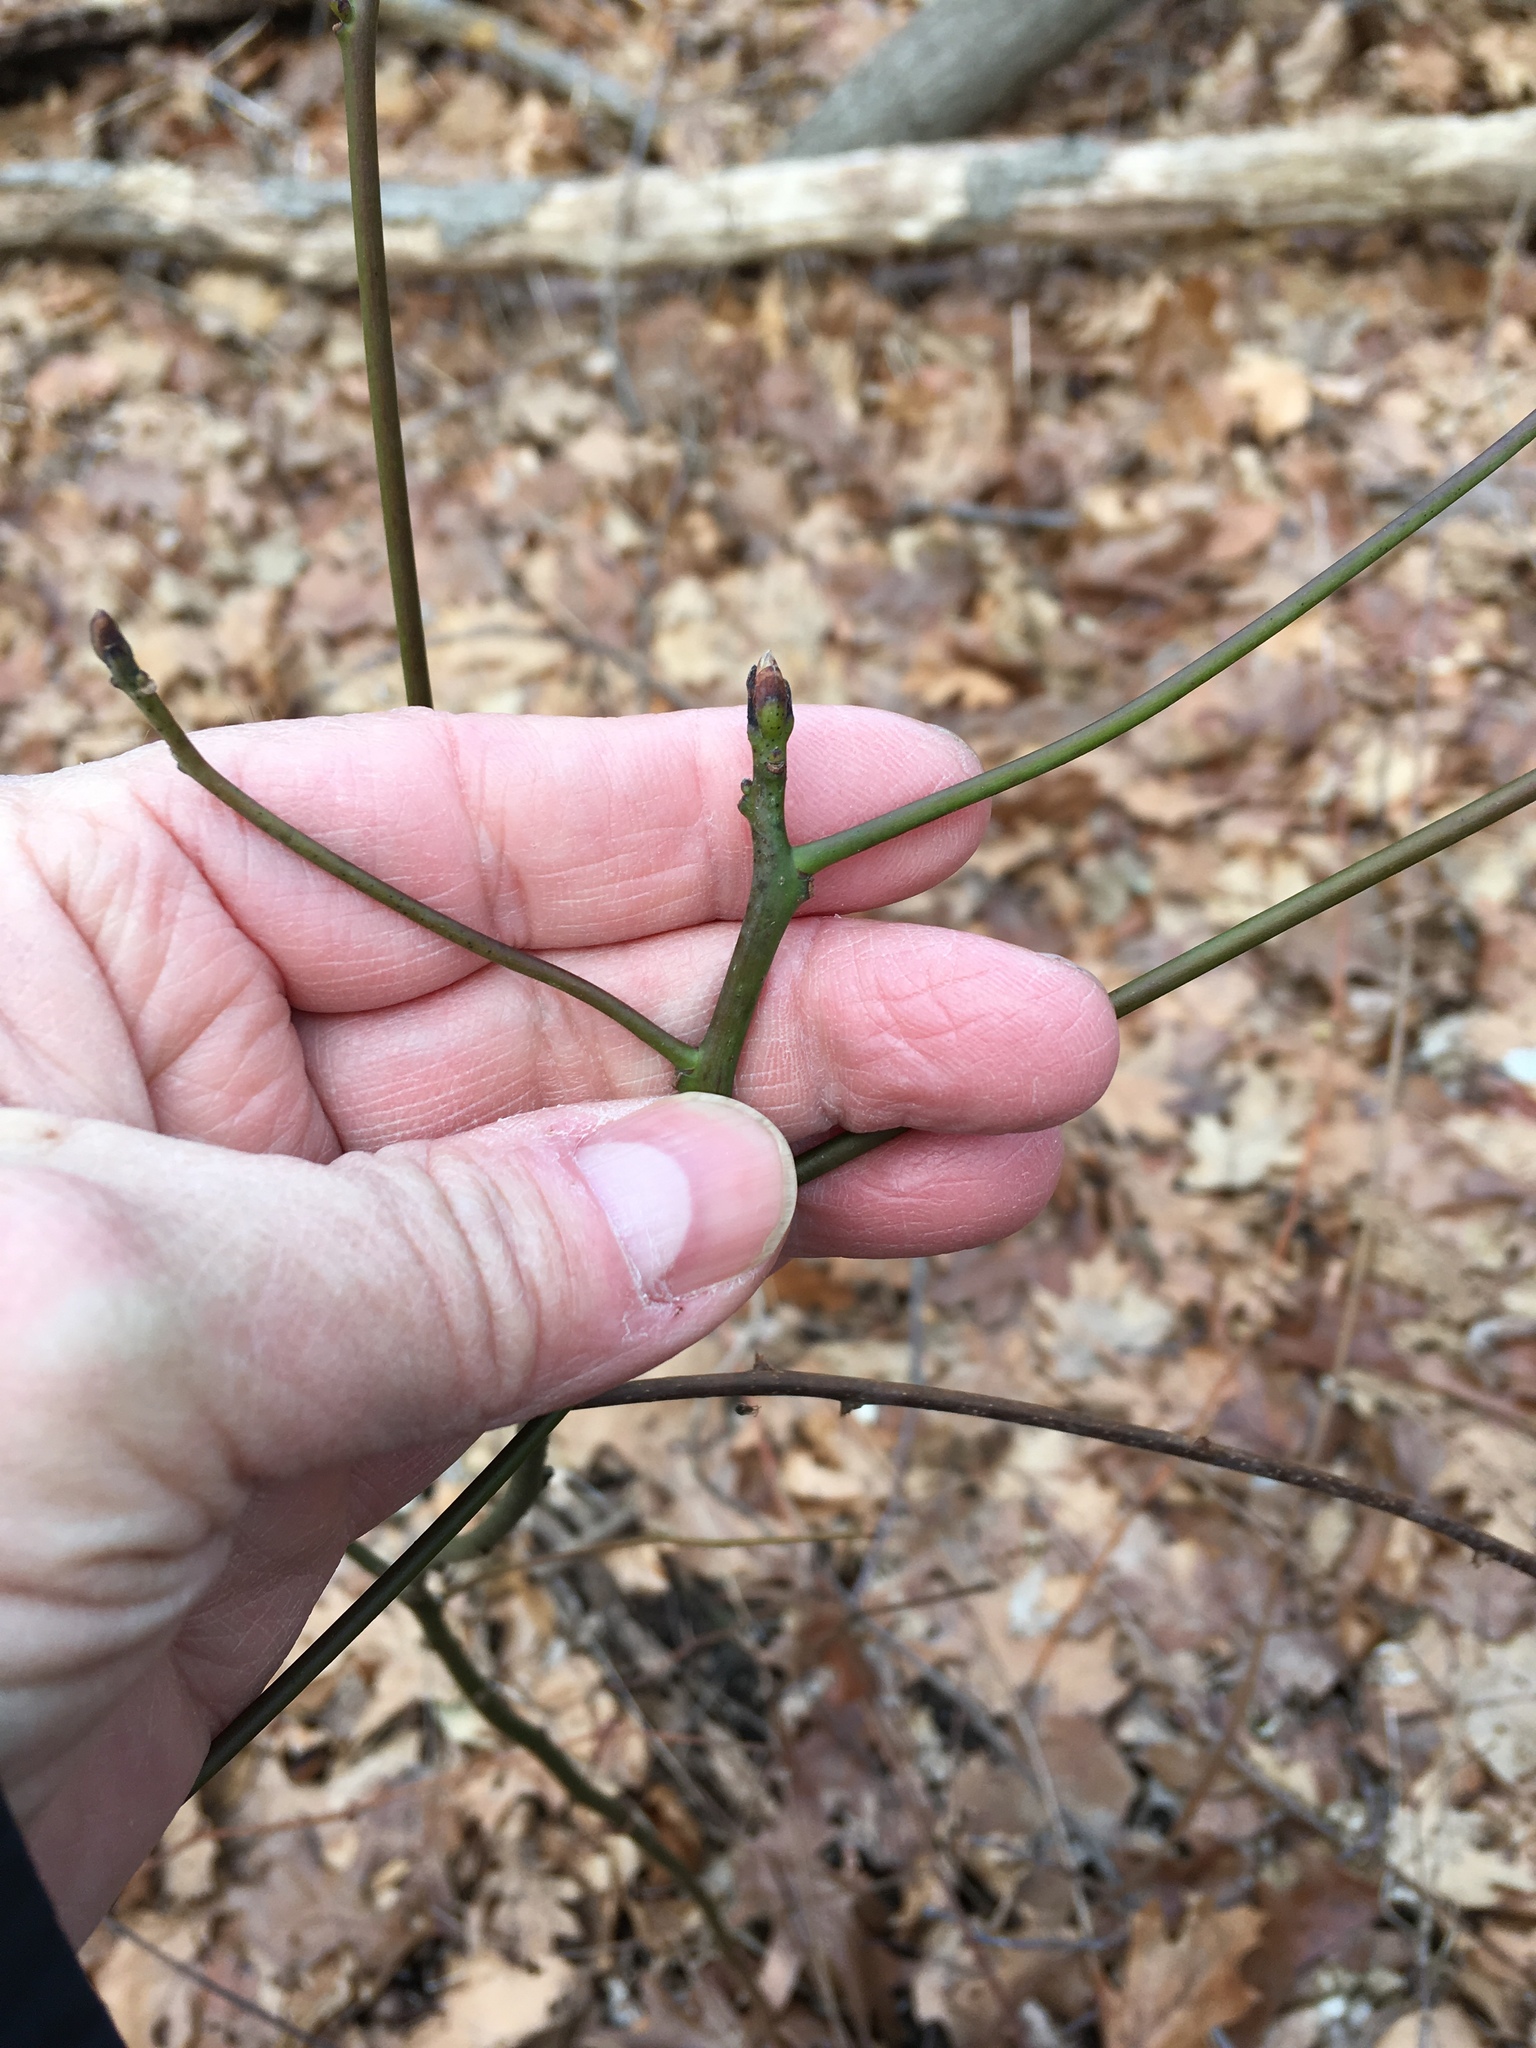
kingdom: Plantae
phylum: Tracheophyta
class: Magnoliopsida
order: Laurales
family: Lauraceae
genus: Sassafras
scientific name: Sassafras albidum
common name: Sassafras
